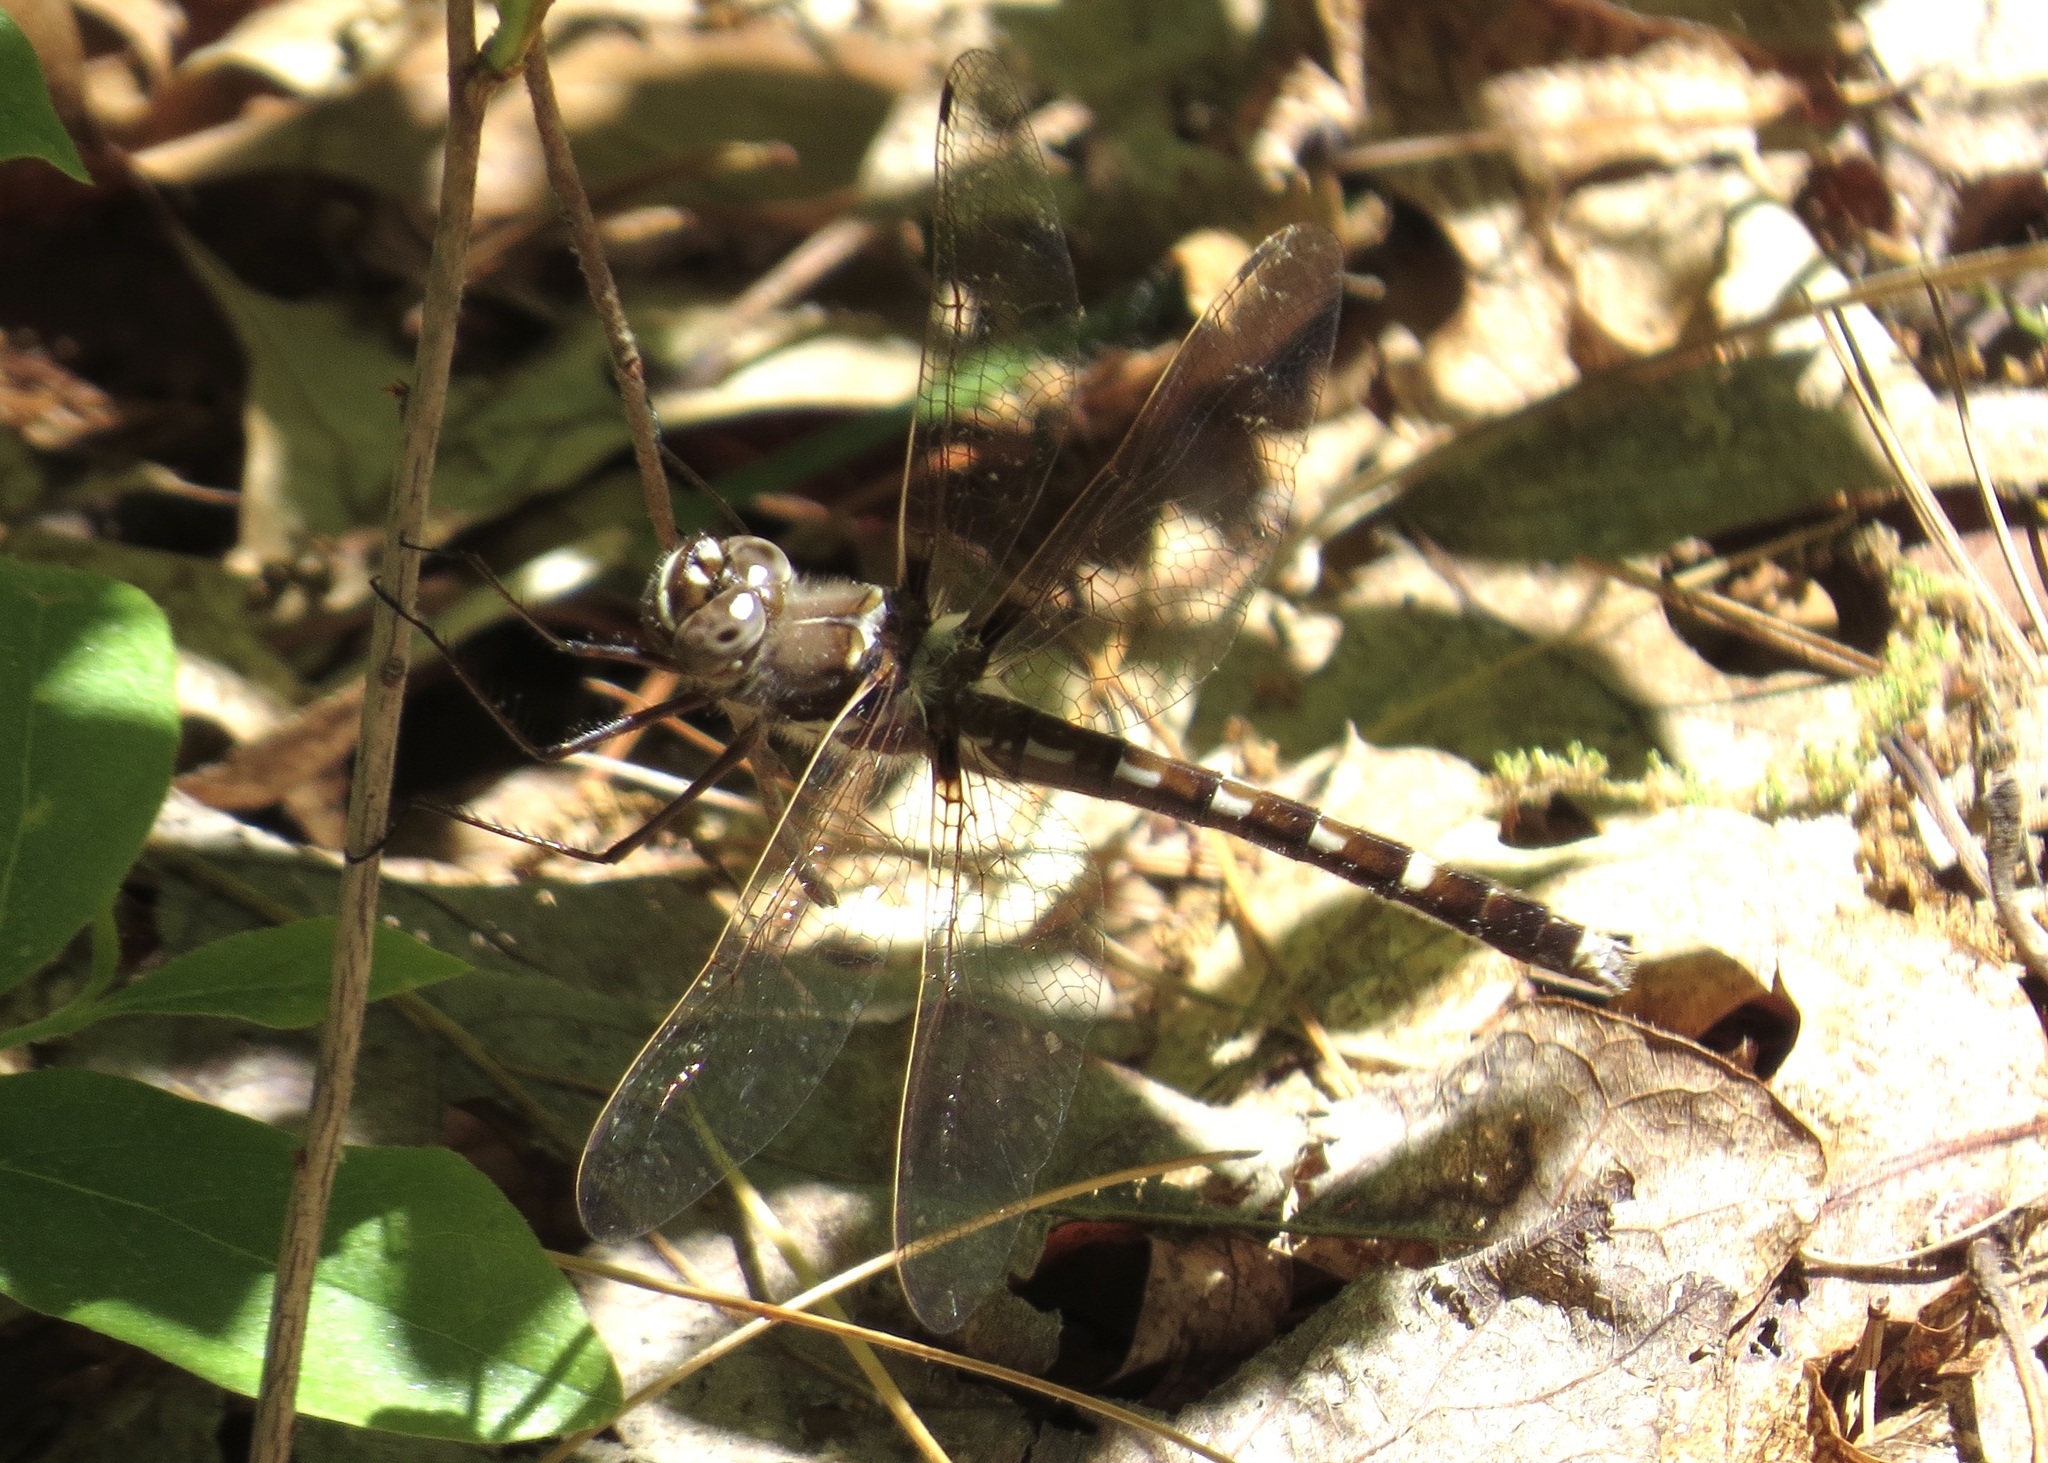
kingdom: Animalia
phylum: Arthropoda
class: Insecta
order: Odonata
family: Macromiidae
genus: Didymops
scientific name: Didymops transversa
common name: Stream cruiser
